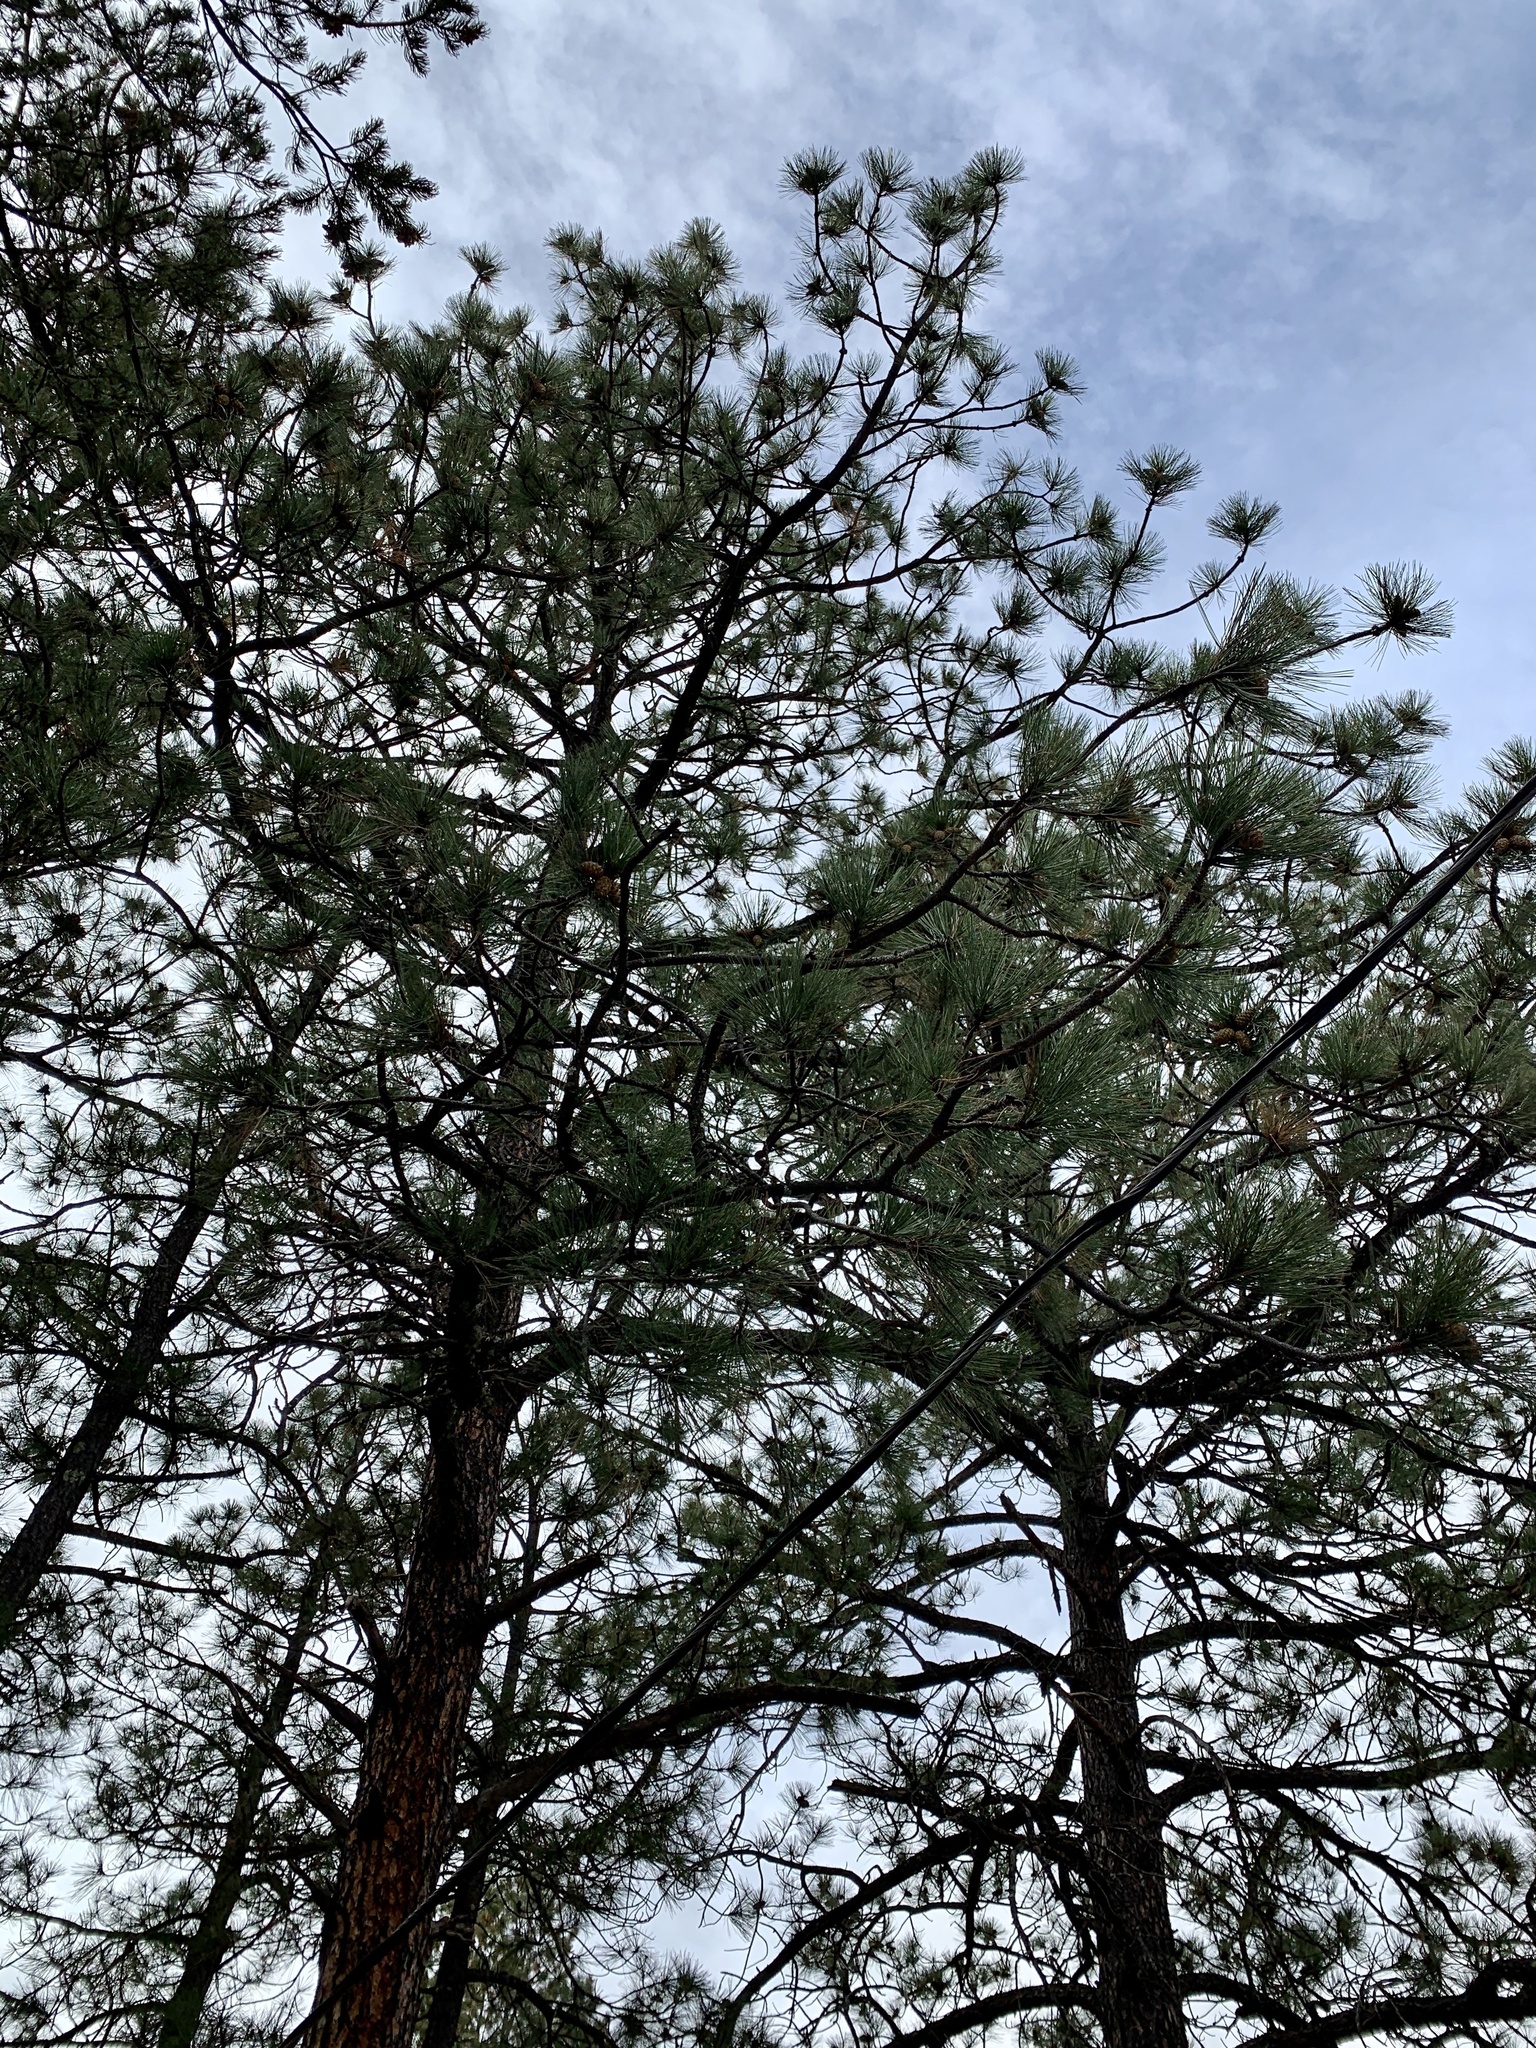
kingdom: Plantae
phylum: Tracheophyta
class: Pinopsida
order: Pinales
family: Pinaceae
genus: Pinus
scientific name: Pinus ponderosa
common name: Western yellow-pine
